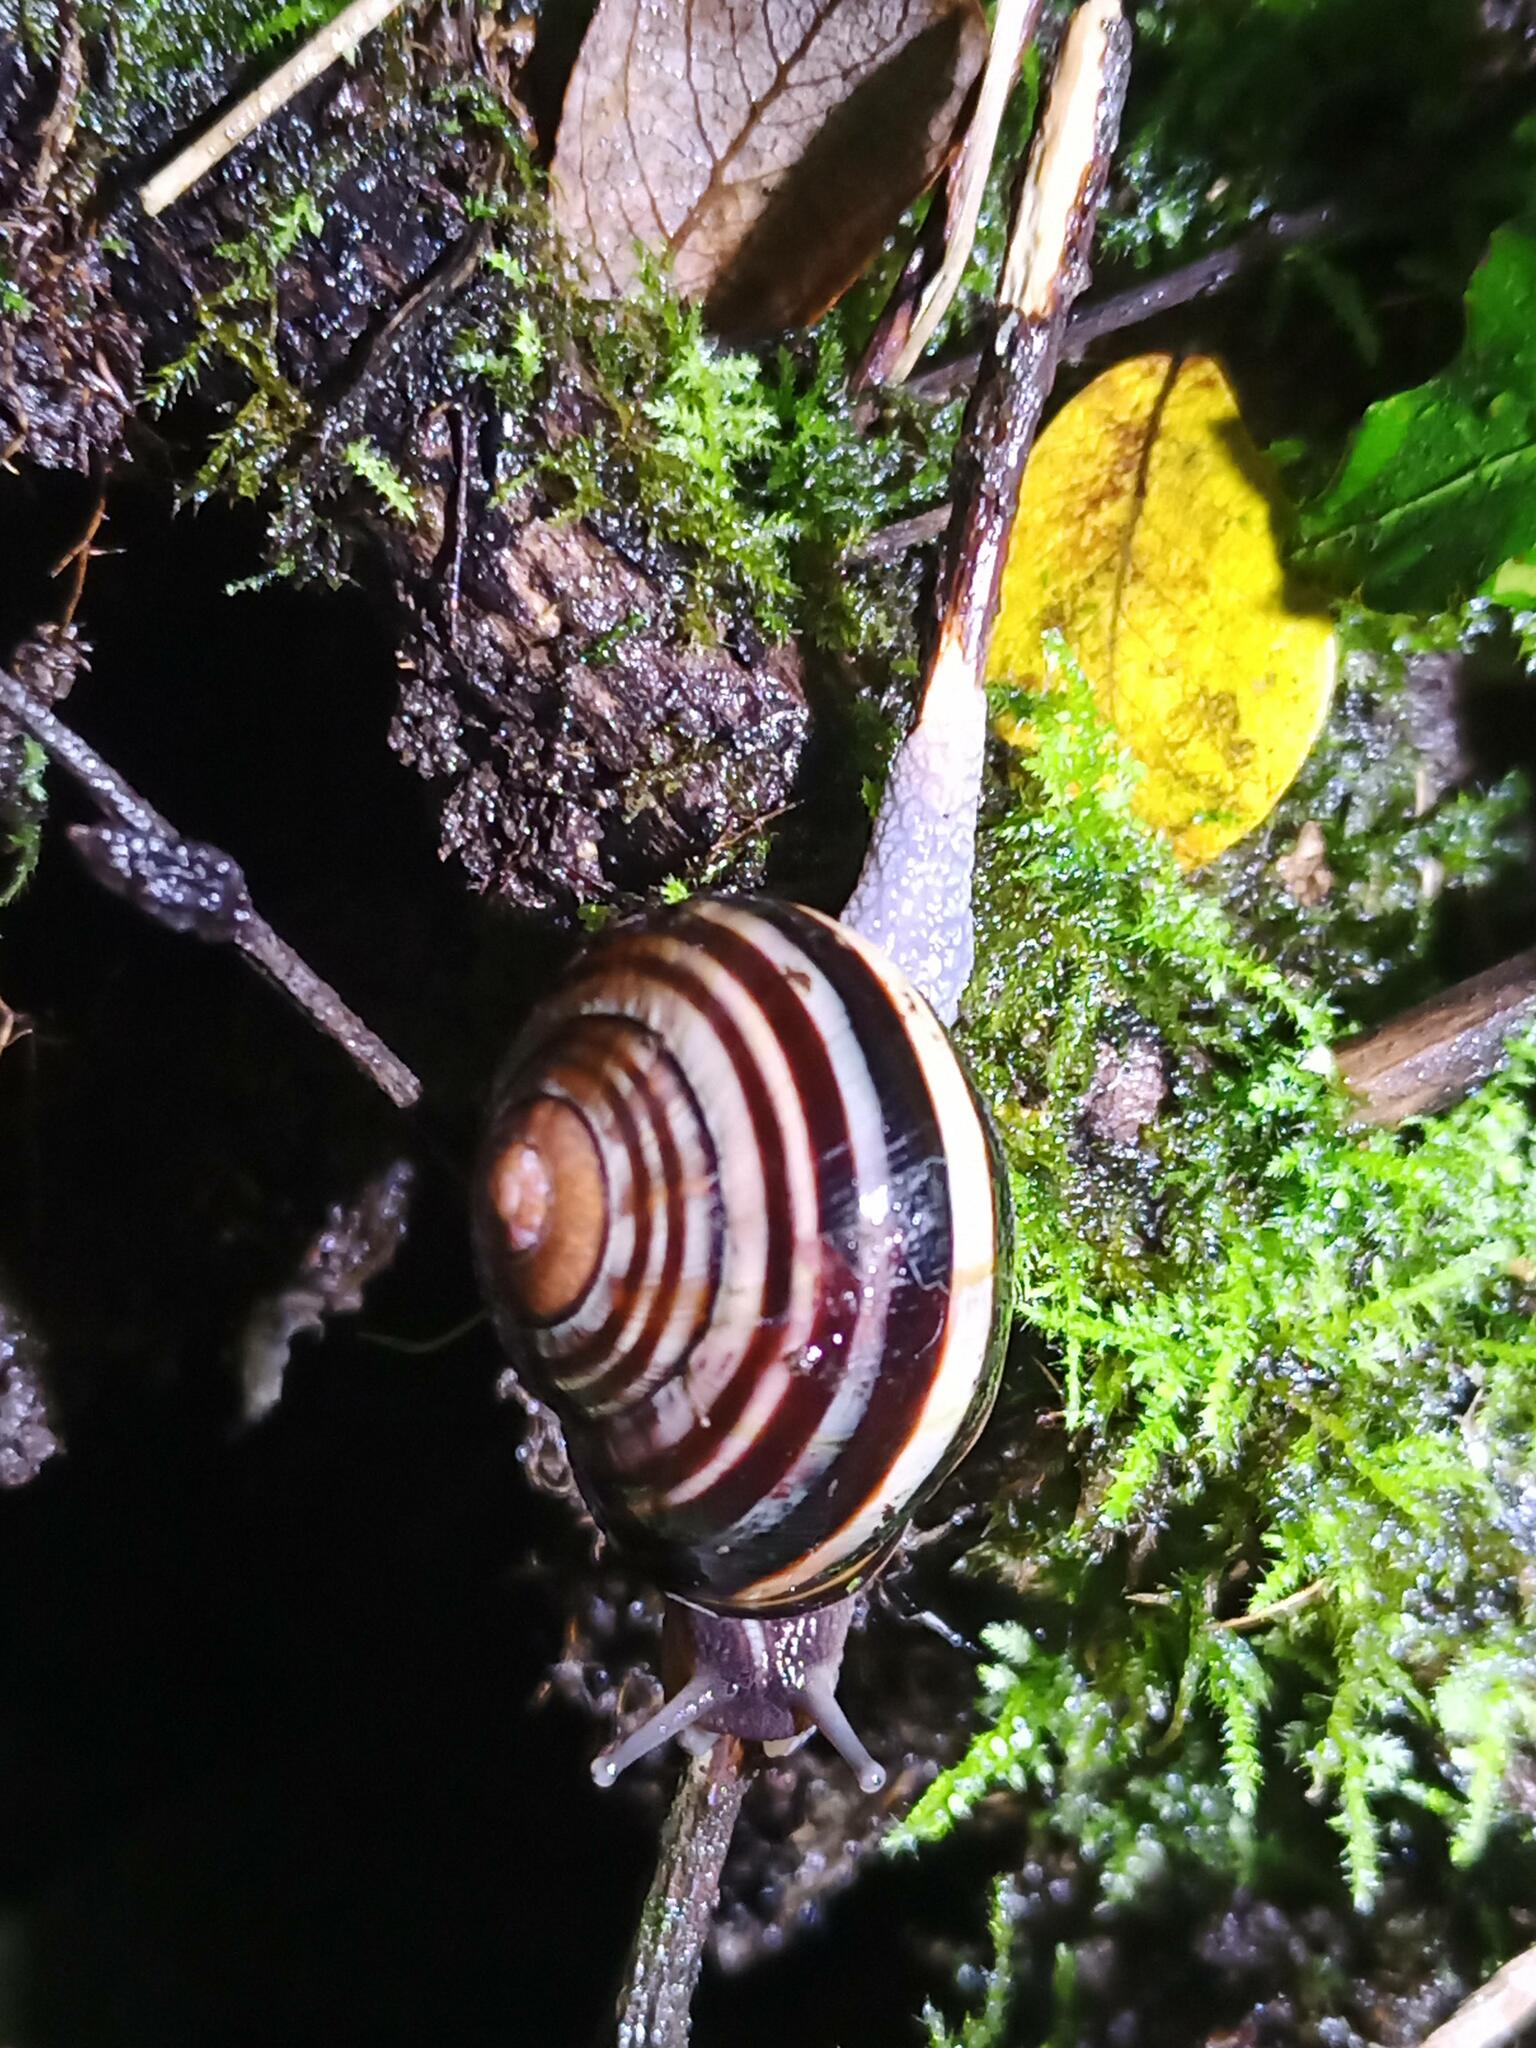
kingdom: Animalia
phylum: Mollusca
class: Gastropoda
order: Stylommatophora
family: Helicidae
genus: Cepaea
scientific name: Cepaea nemoralis
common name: Grovesnail
